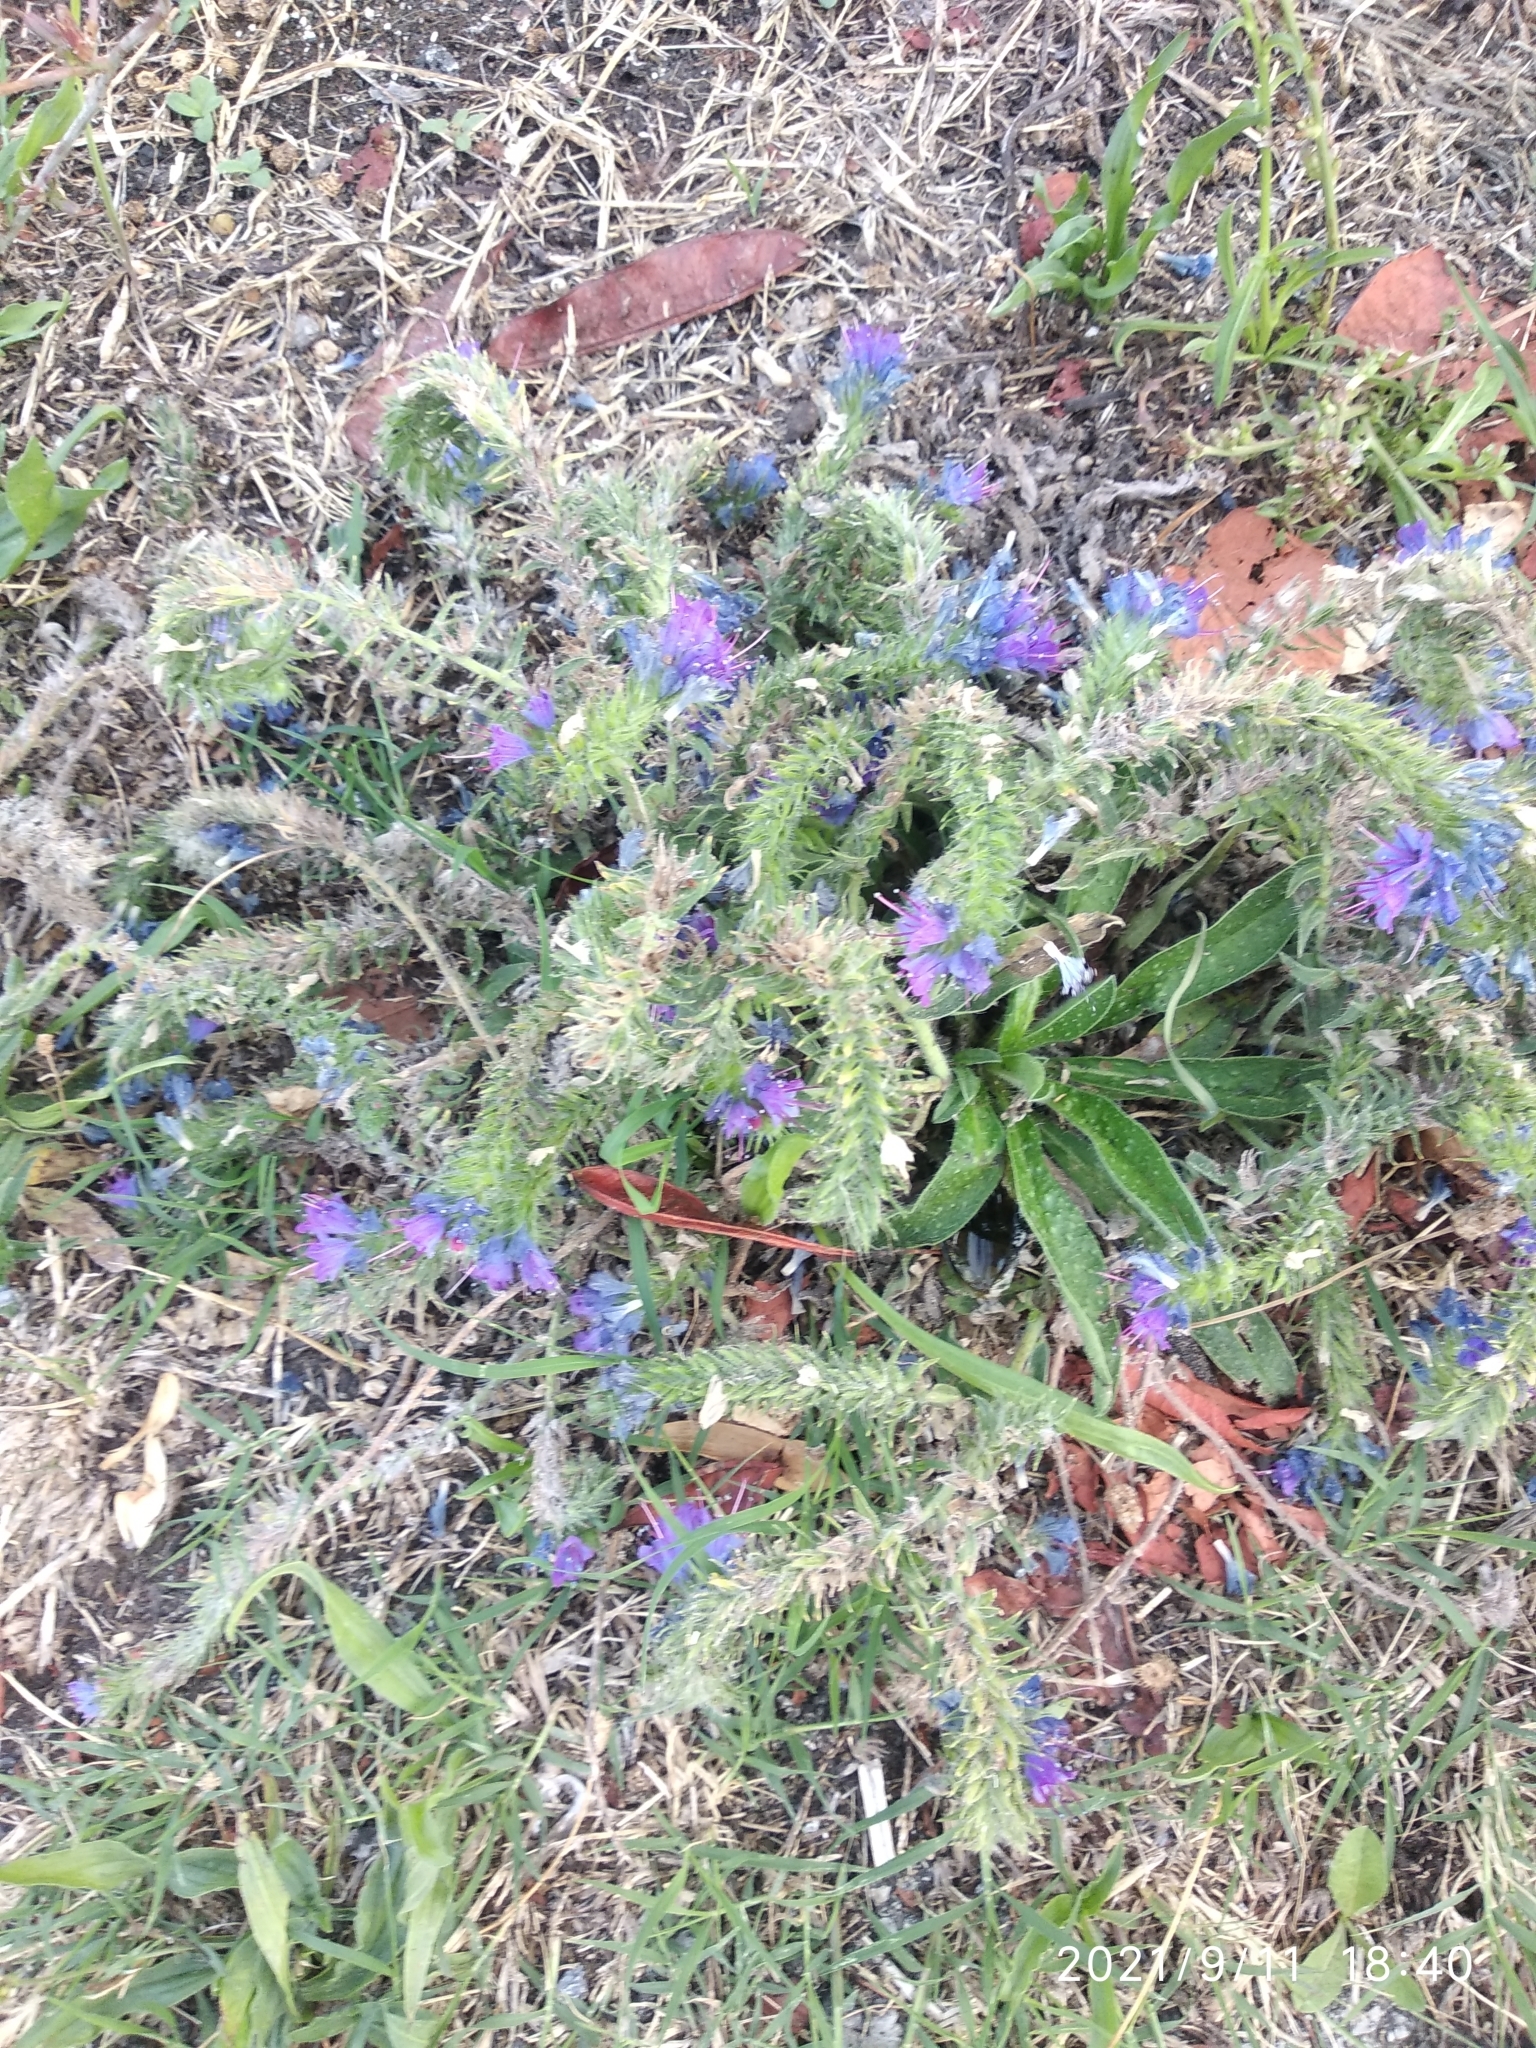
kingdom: Plantae
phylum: Tracheophyta
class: Magnoliopsida
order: Boraginales
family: Boraginaceae
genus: Echium
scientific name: Echium vulgare
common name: Common viper's bugloss
